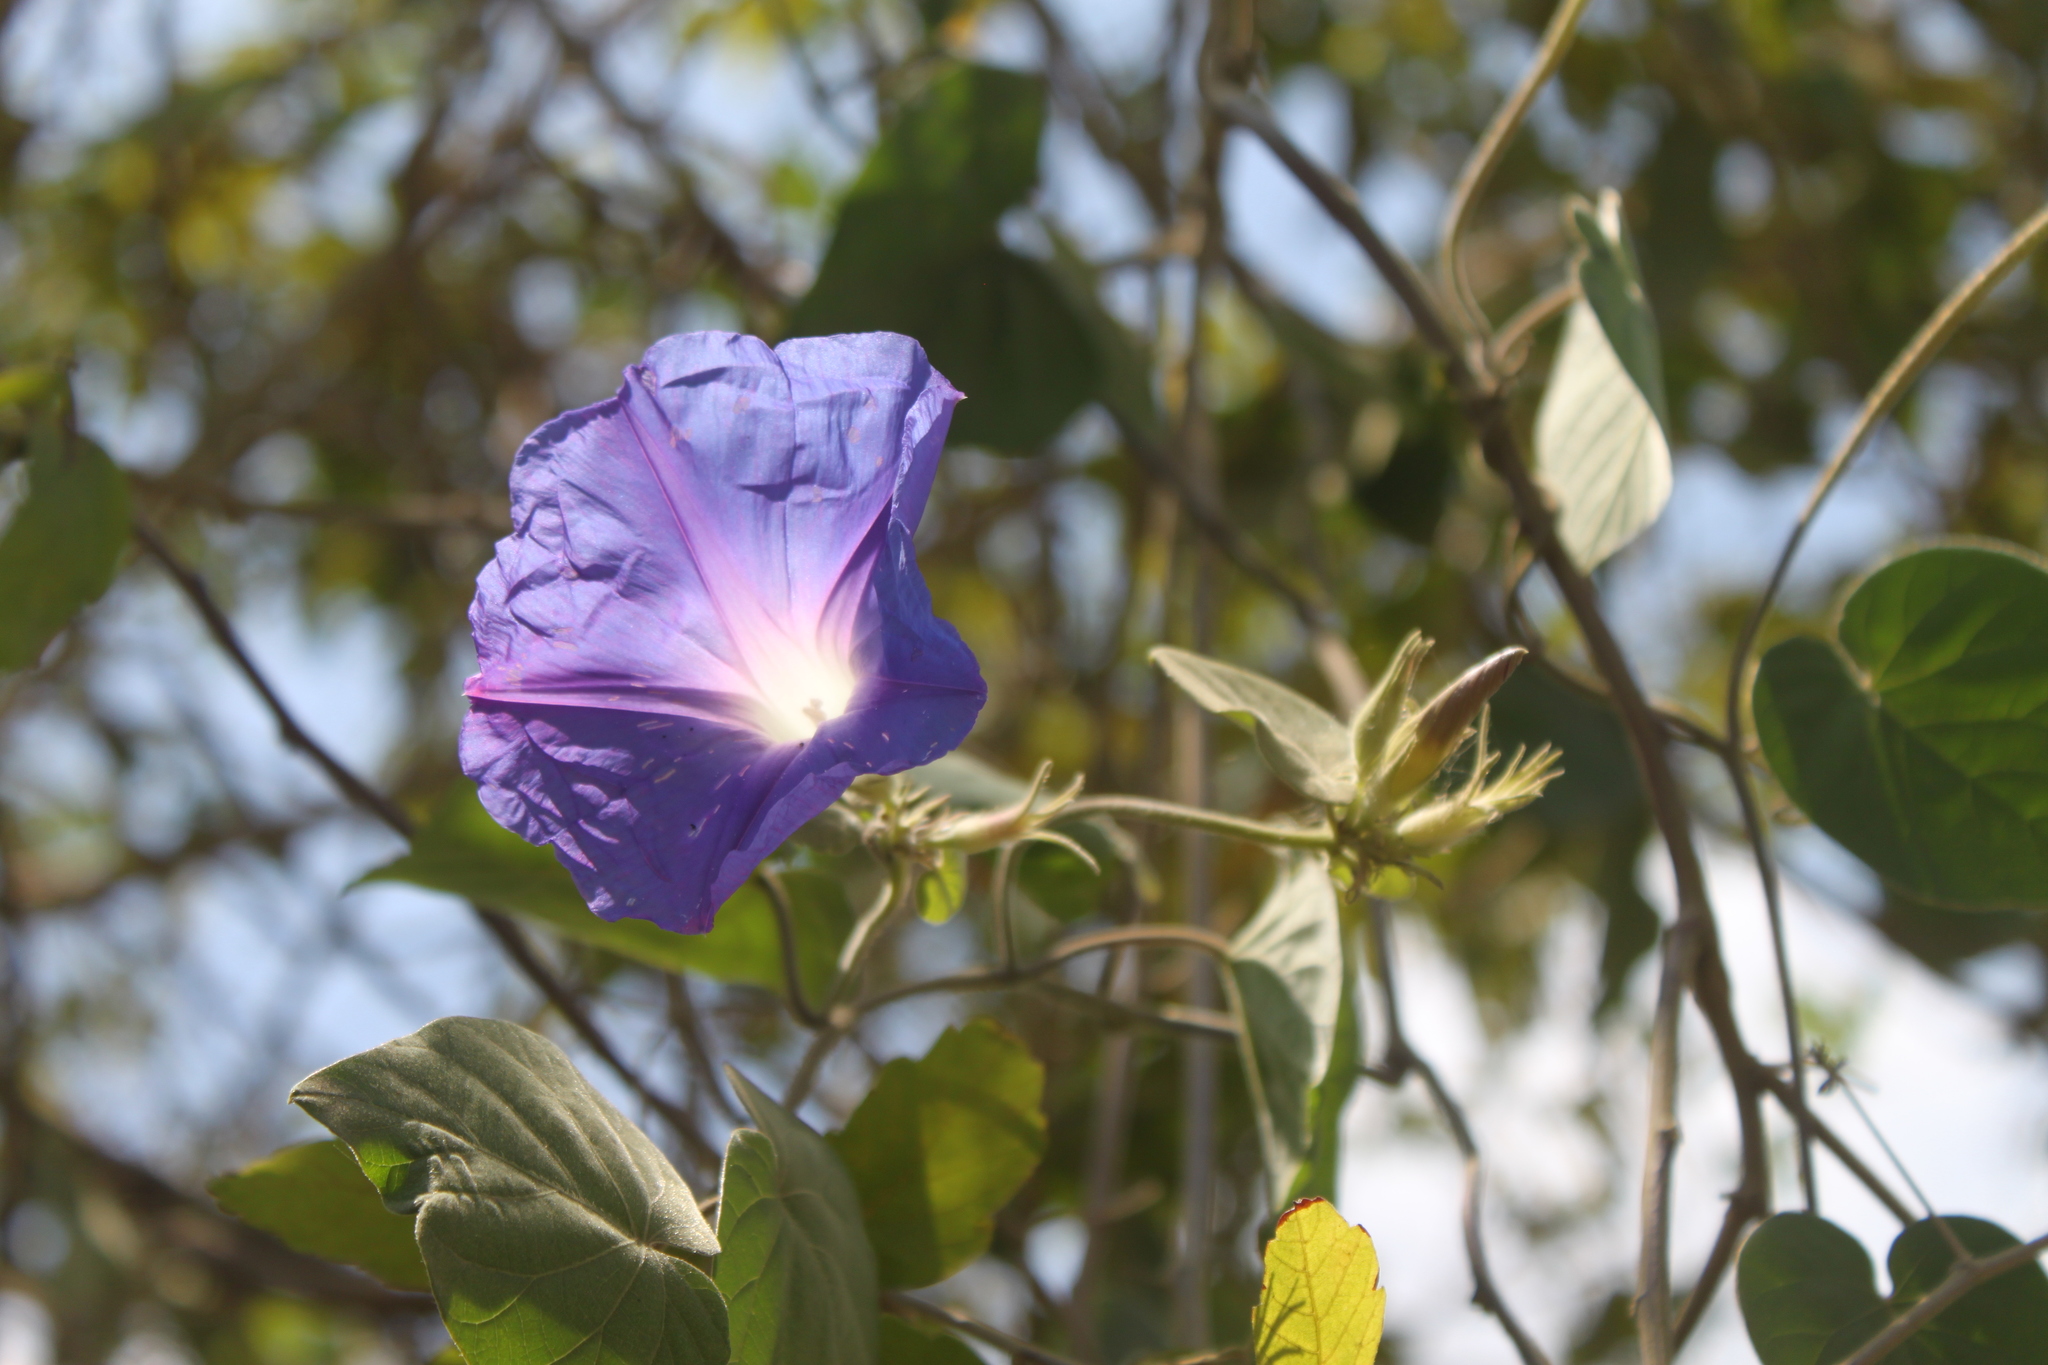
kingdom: Plantae
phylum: Tracheophyta
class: Magnoliopsida
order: Solanales
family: Convolvulaceae
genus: Ipomoea
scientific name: Ipomoea indica
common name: Blue dawnflower
